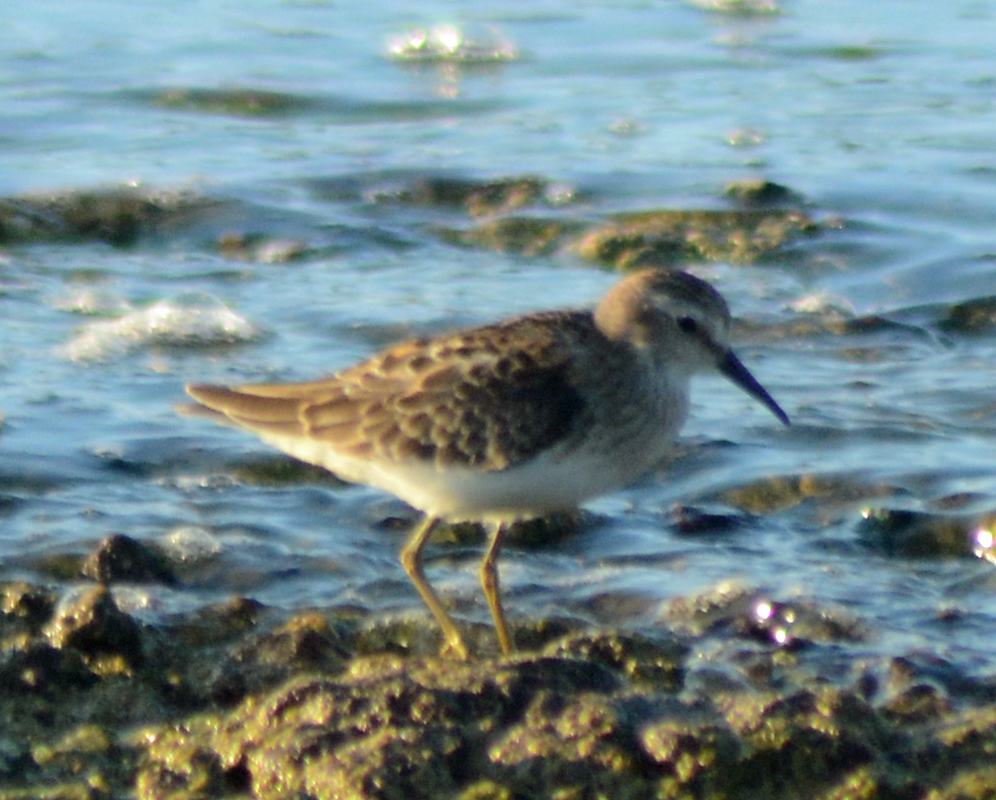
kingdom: Animalia
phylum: Chordata
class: Aves
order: Charadriiformes
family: Scolopacidae
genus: Calidris
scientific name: Calidris minutilla
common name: Least sandpiper
